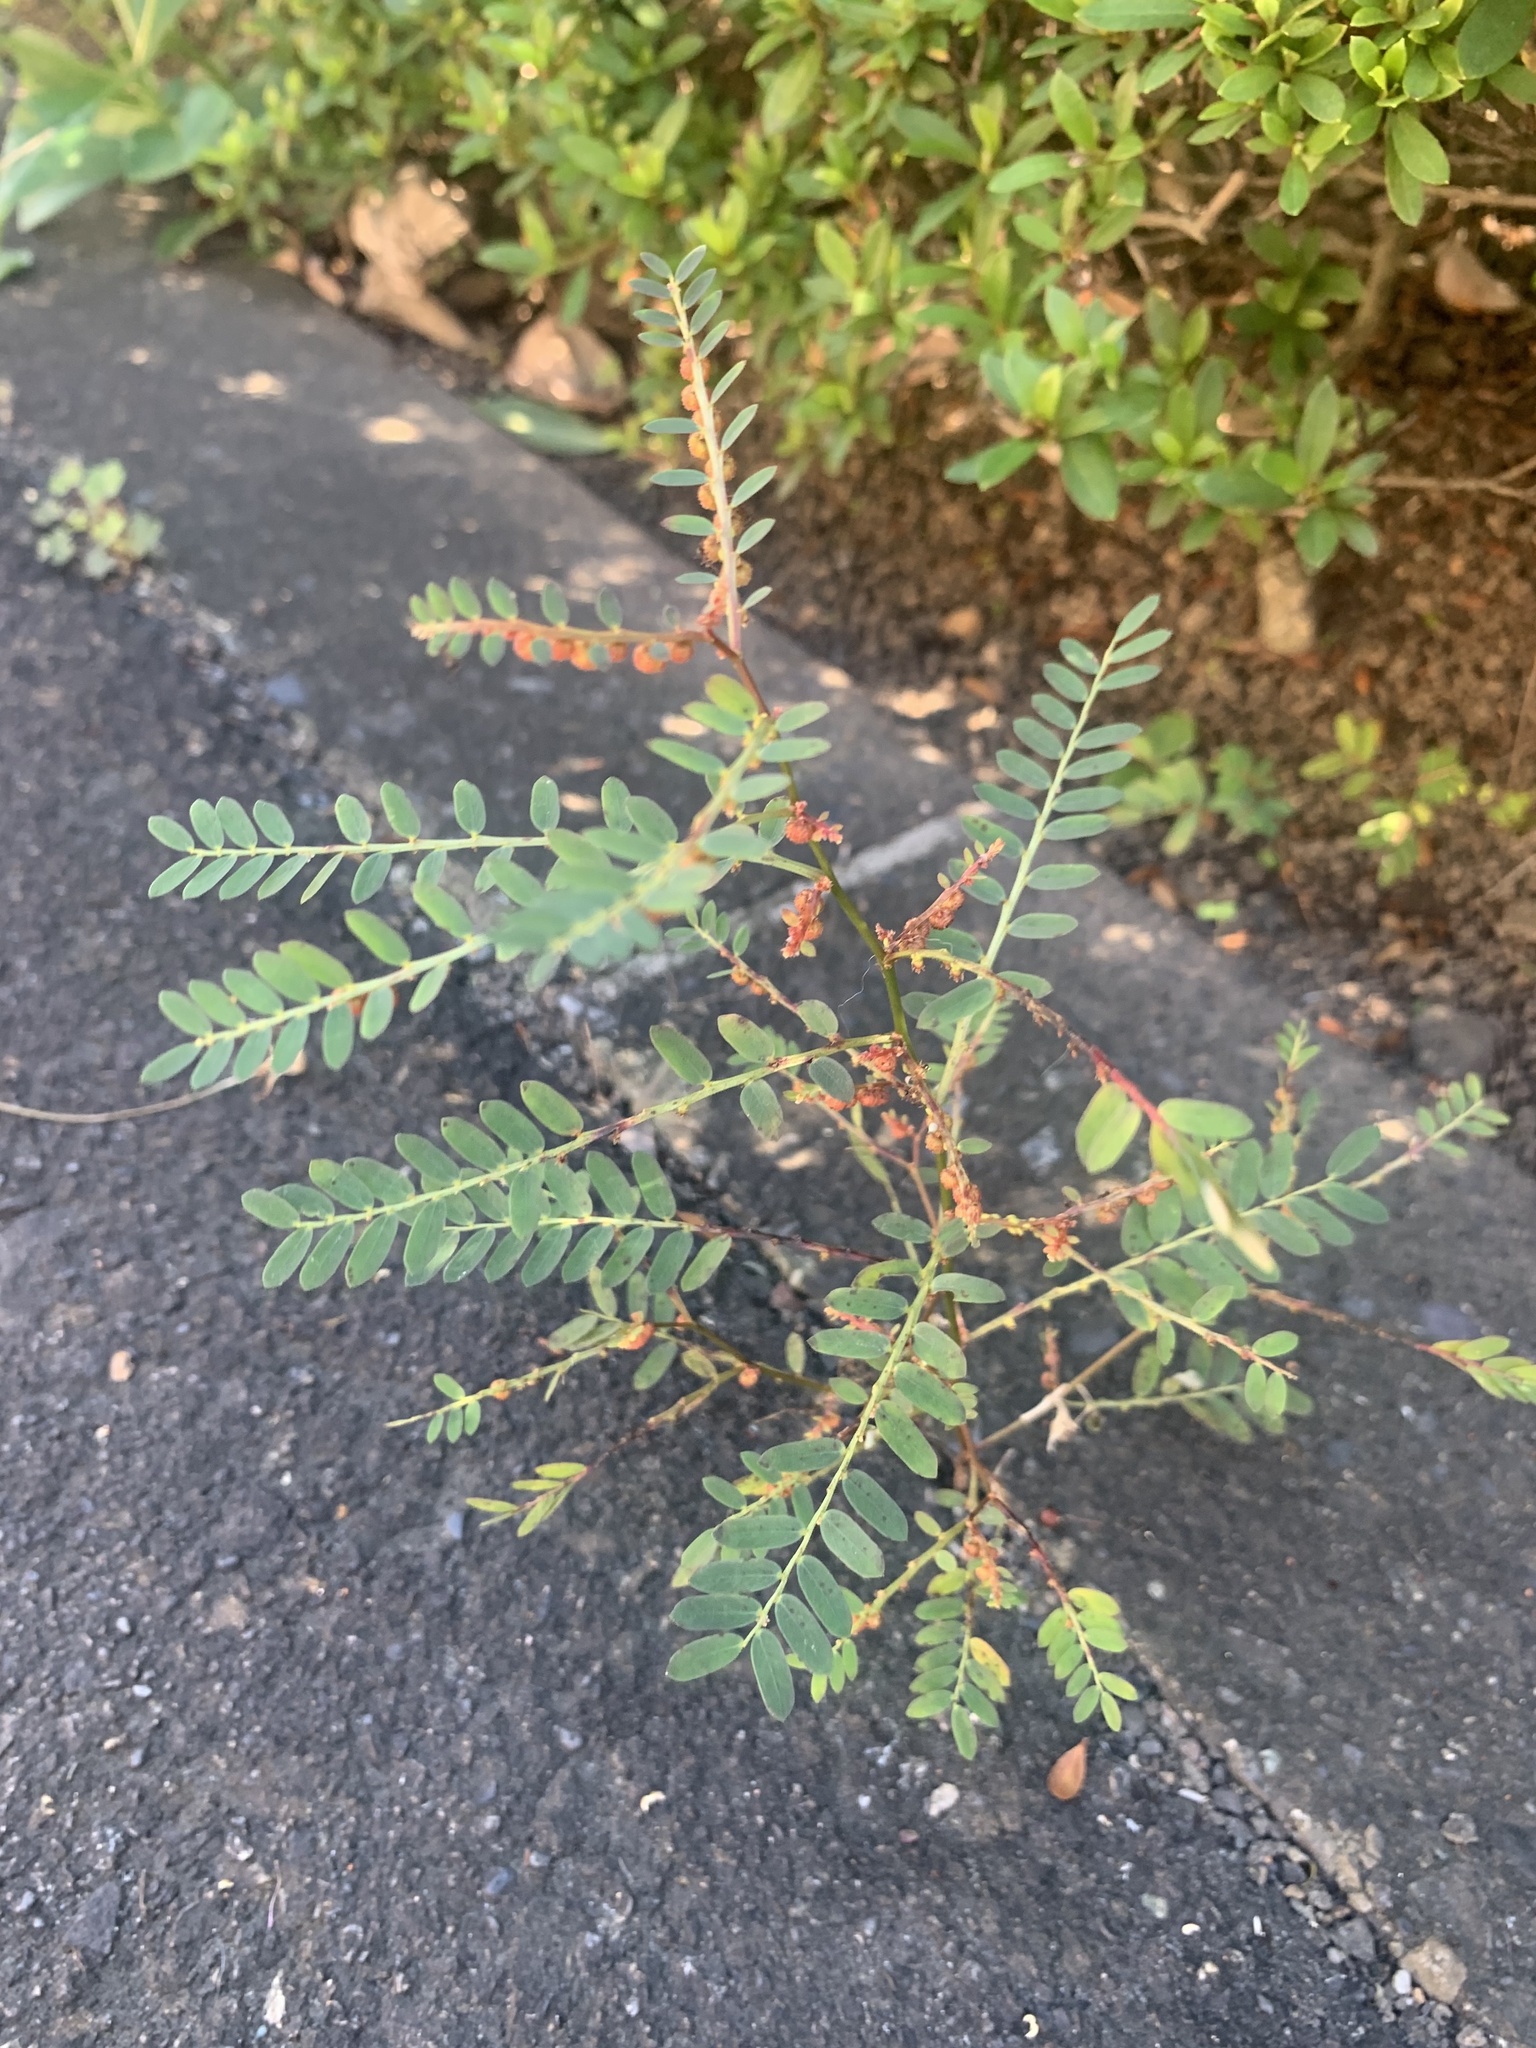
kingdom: Plantae
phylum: Tracheophyta
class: Magnoliopsida
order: Malpighiales
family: Phyllanthaceae
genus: Phyllanthus
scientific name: Phyllanthus urinaria
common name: Chamber bitter
